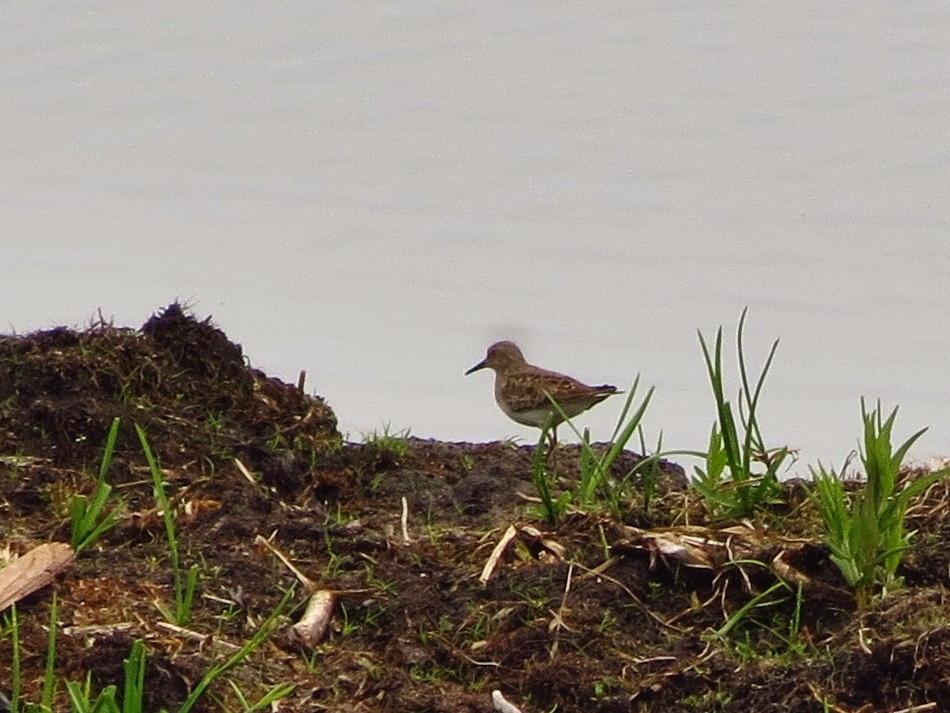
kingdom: Animalia
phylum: Chordata
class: Aves
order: Charadriiformes
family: Scolopacidae
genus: Calidris
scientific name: Calidris temminckii
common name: Temminck's stint
